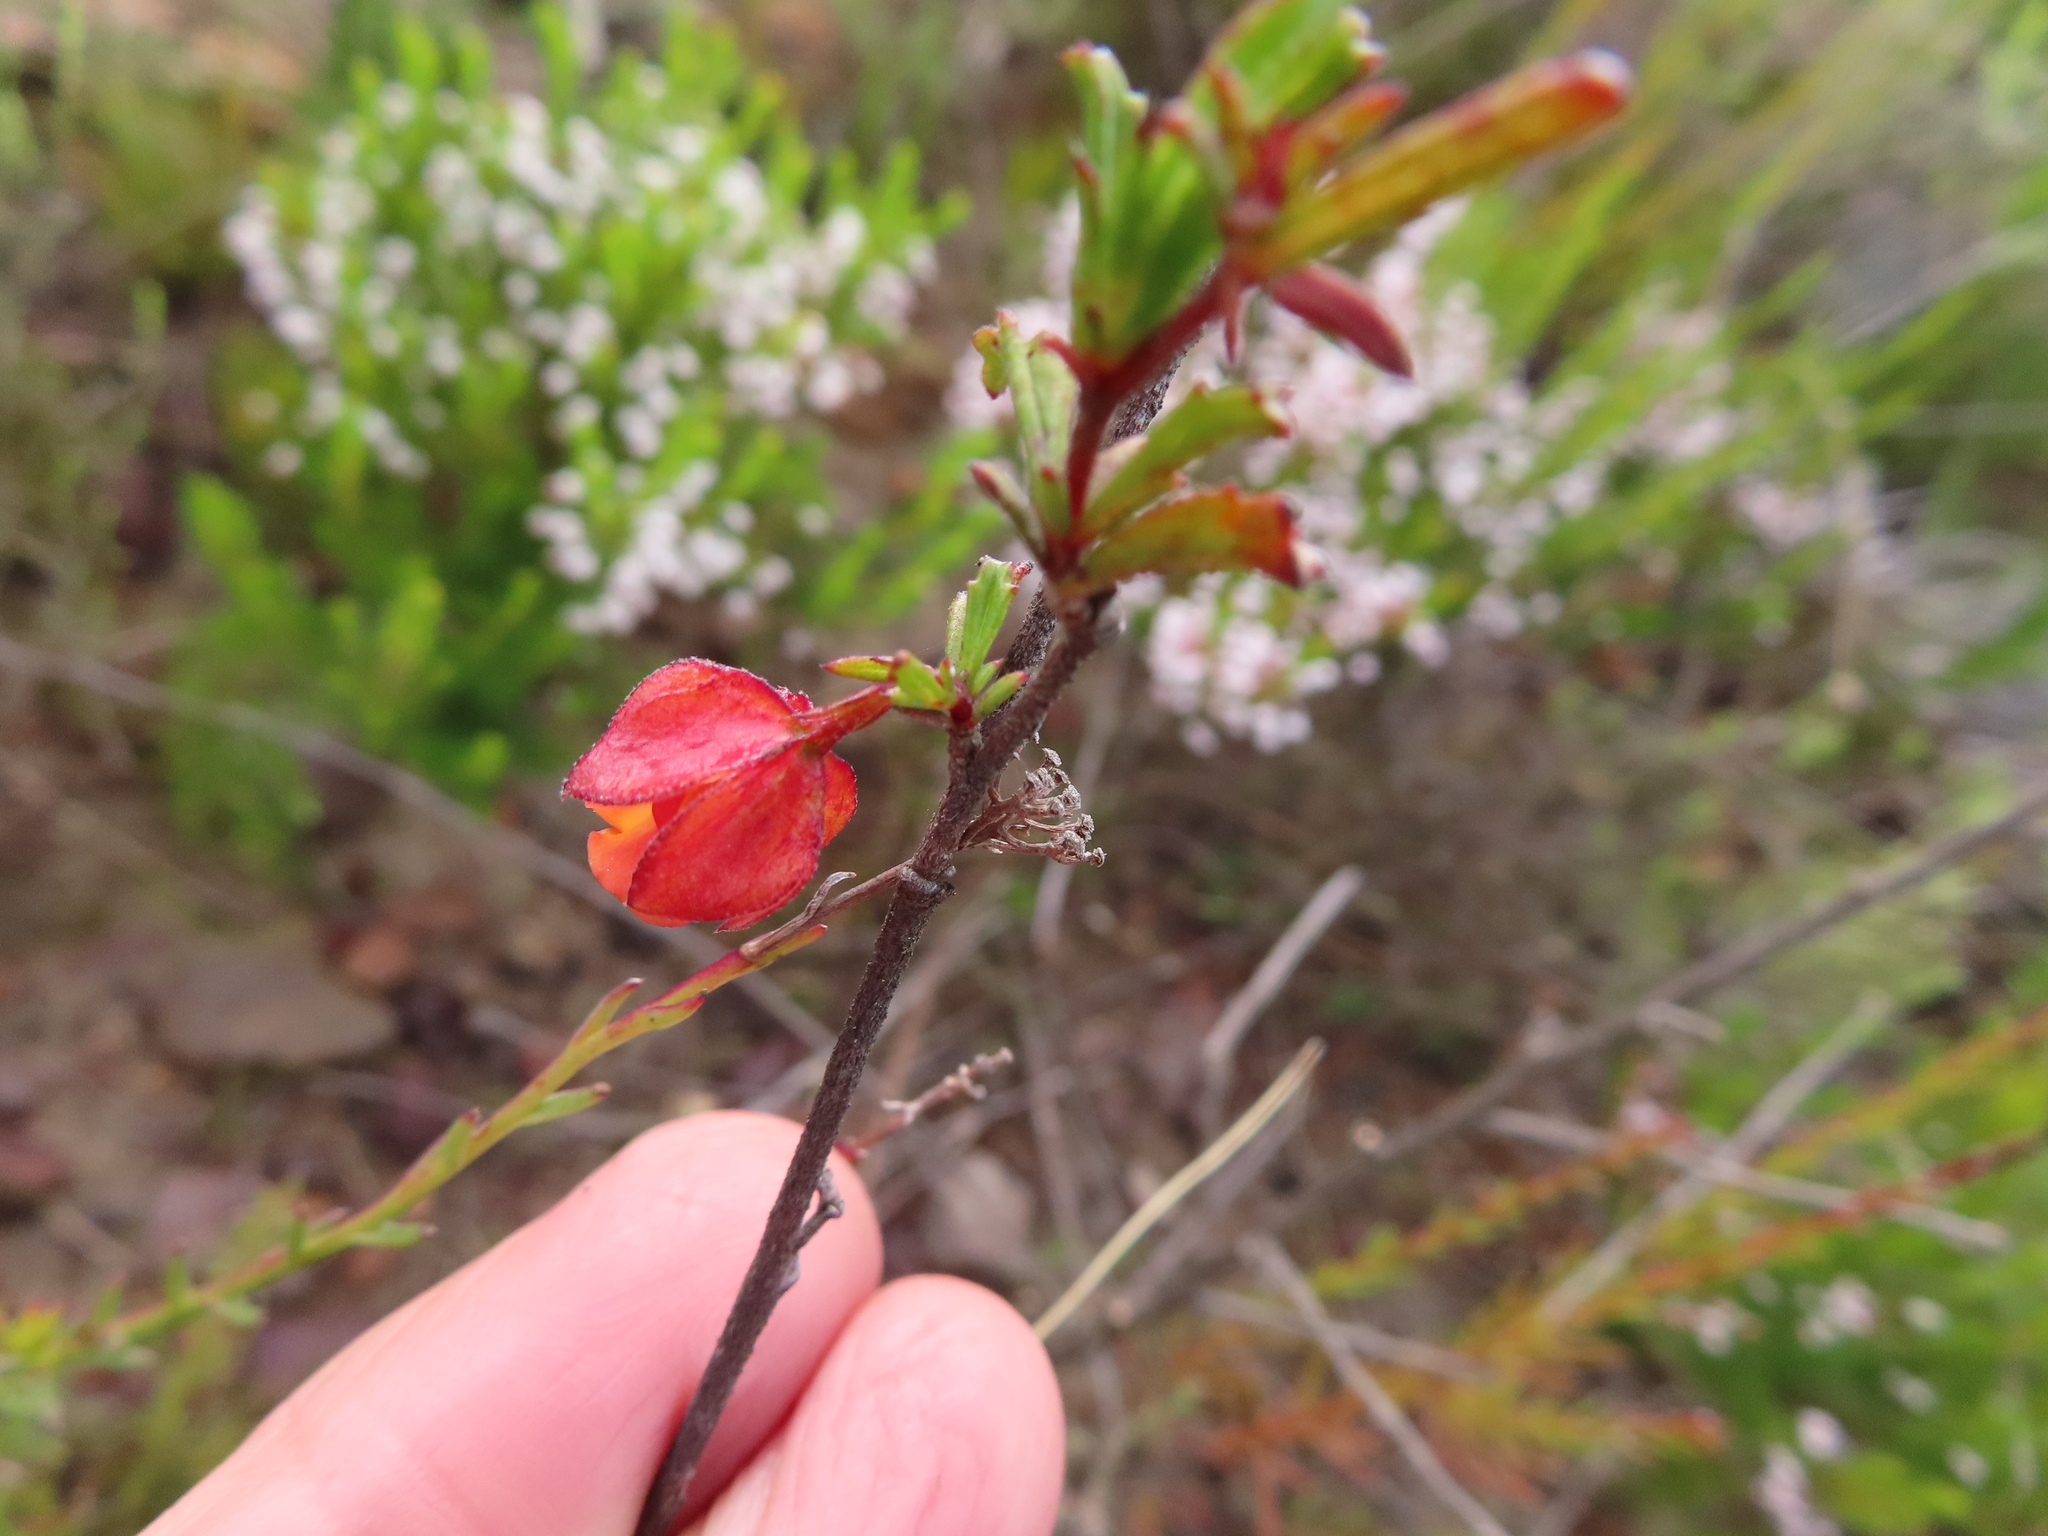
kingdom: Plantae
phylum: Tracheophyta
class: Magnoliopsida
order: Malvales
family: Malvaceae
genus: Hermannia
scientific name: Hermannia angularis
